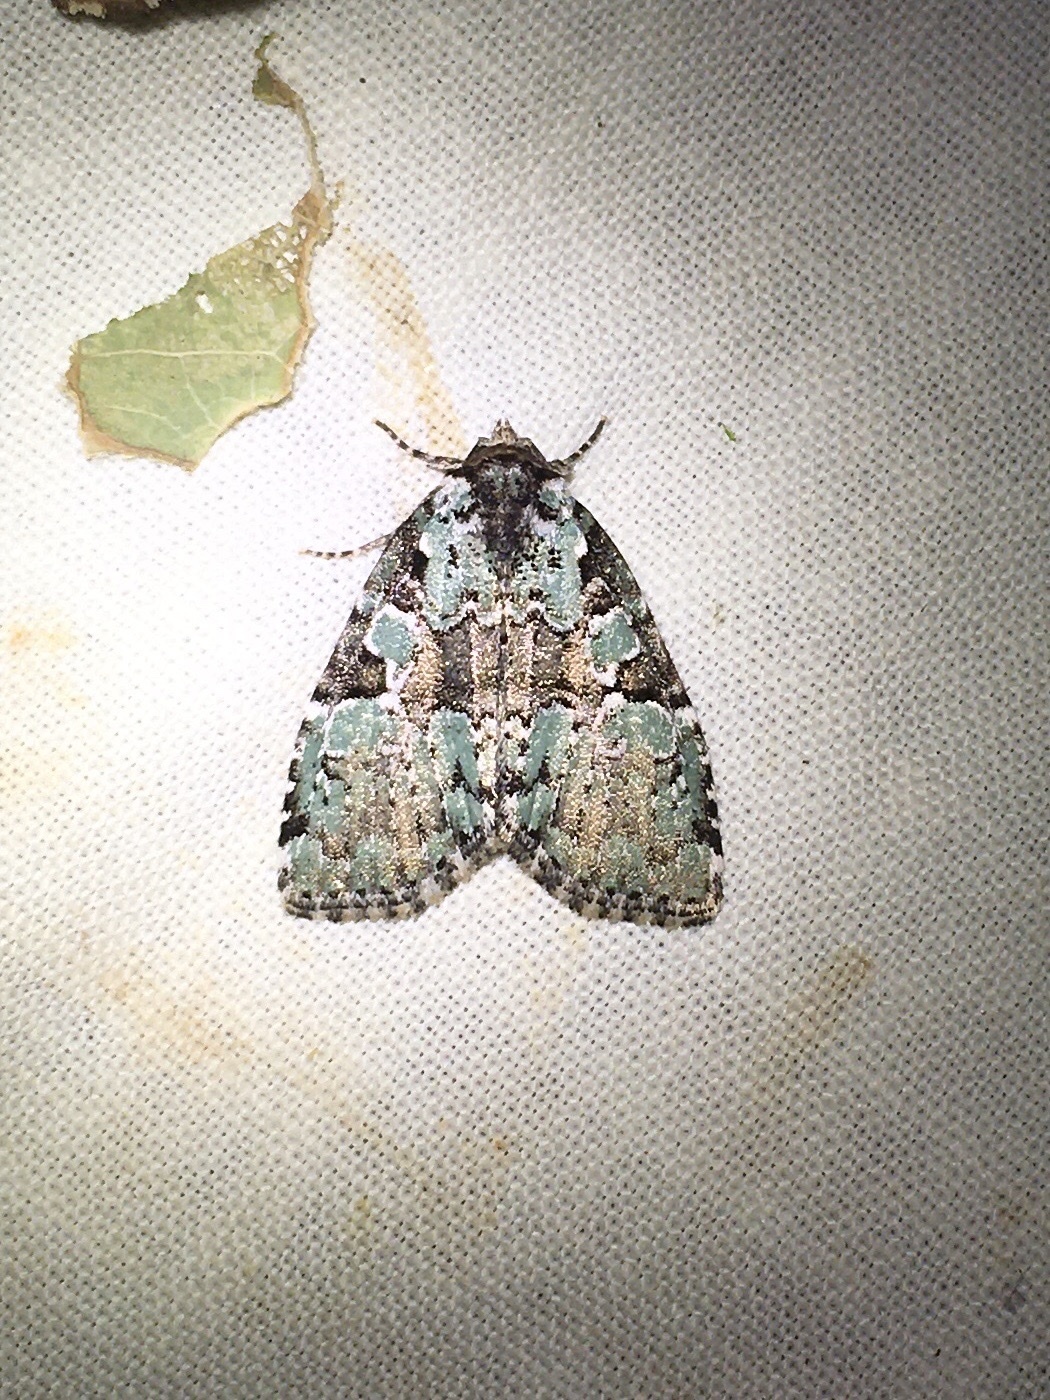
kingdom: Animalia
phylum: Arthropoda
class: Insecta
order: Lepidoptera
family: Noctuidae
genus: Leuconycta
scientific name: Leuconycta lepidula
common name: Marbled-green leuconycta moth
